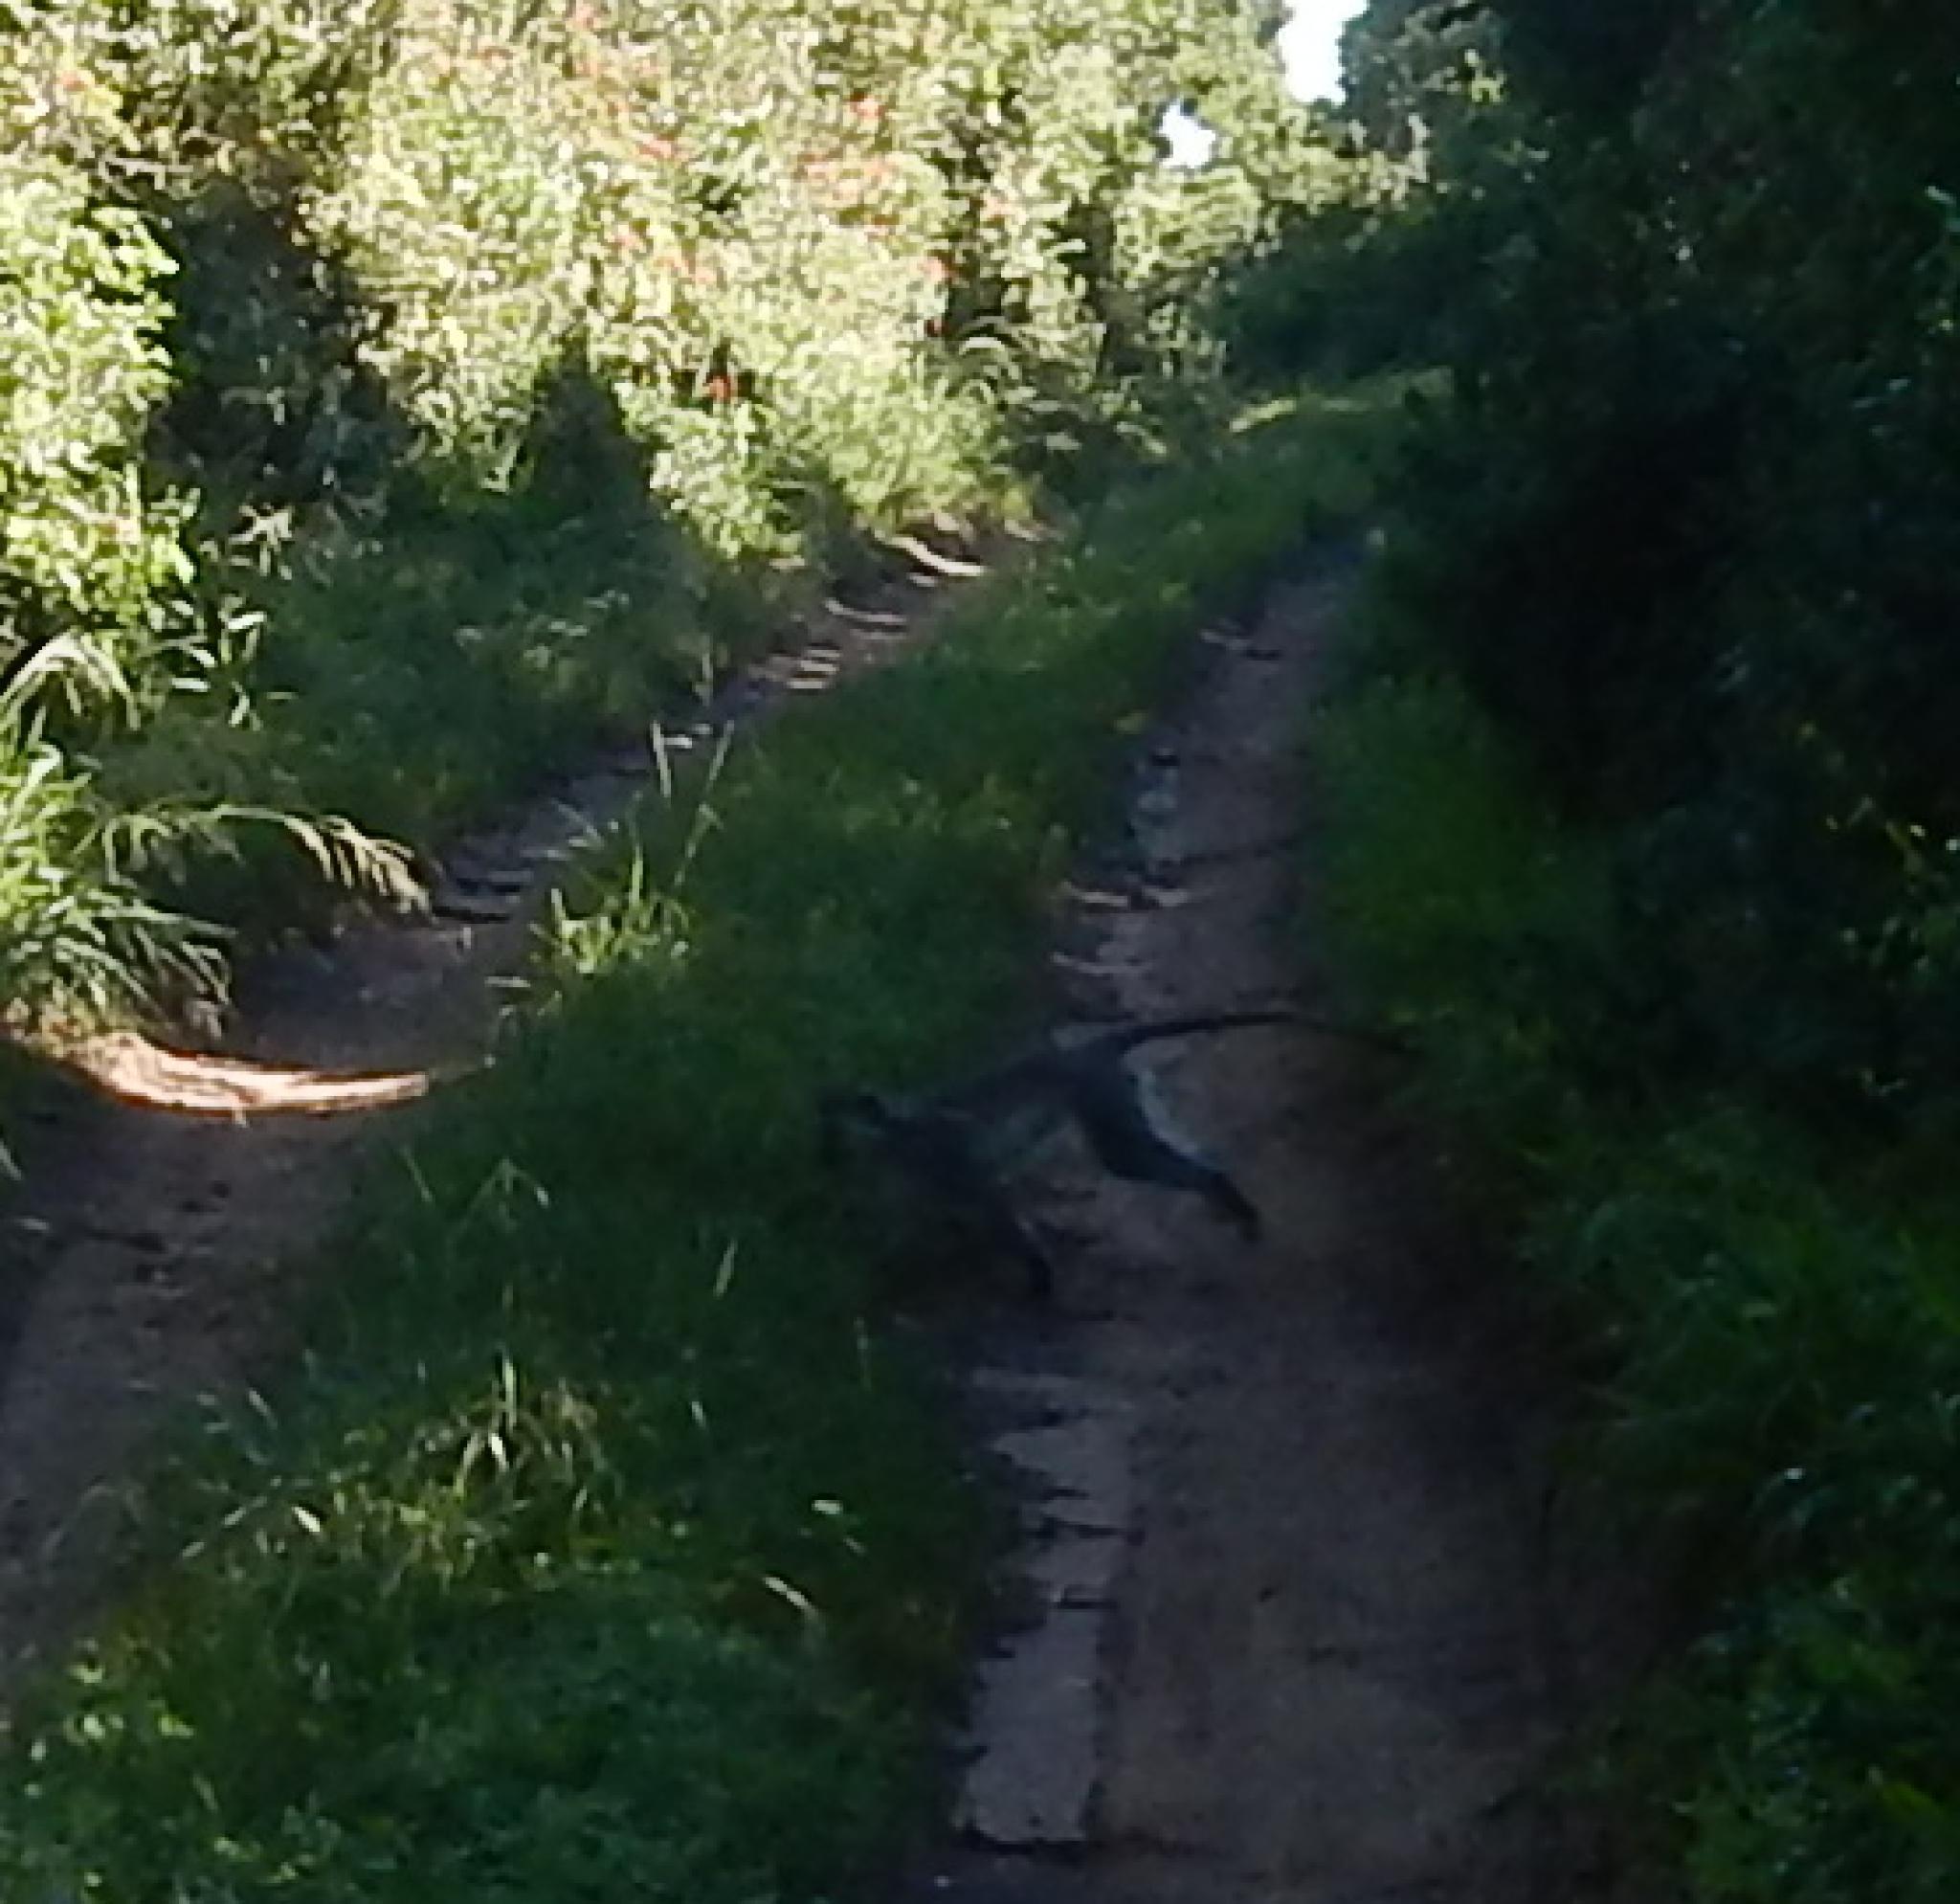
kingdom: Animalia
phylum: Chordata
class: Mammalia
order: Primates
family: Cercopithecidae
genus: Chlorocebus
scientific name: Chlorocebus pygerythrus
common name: Vervet monkey
